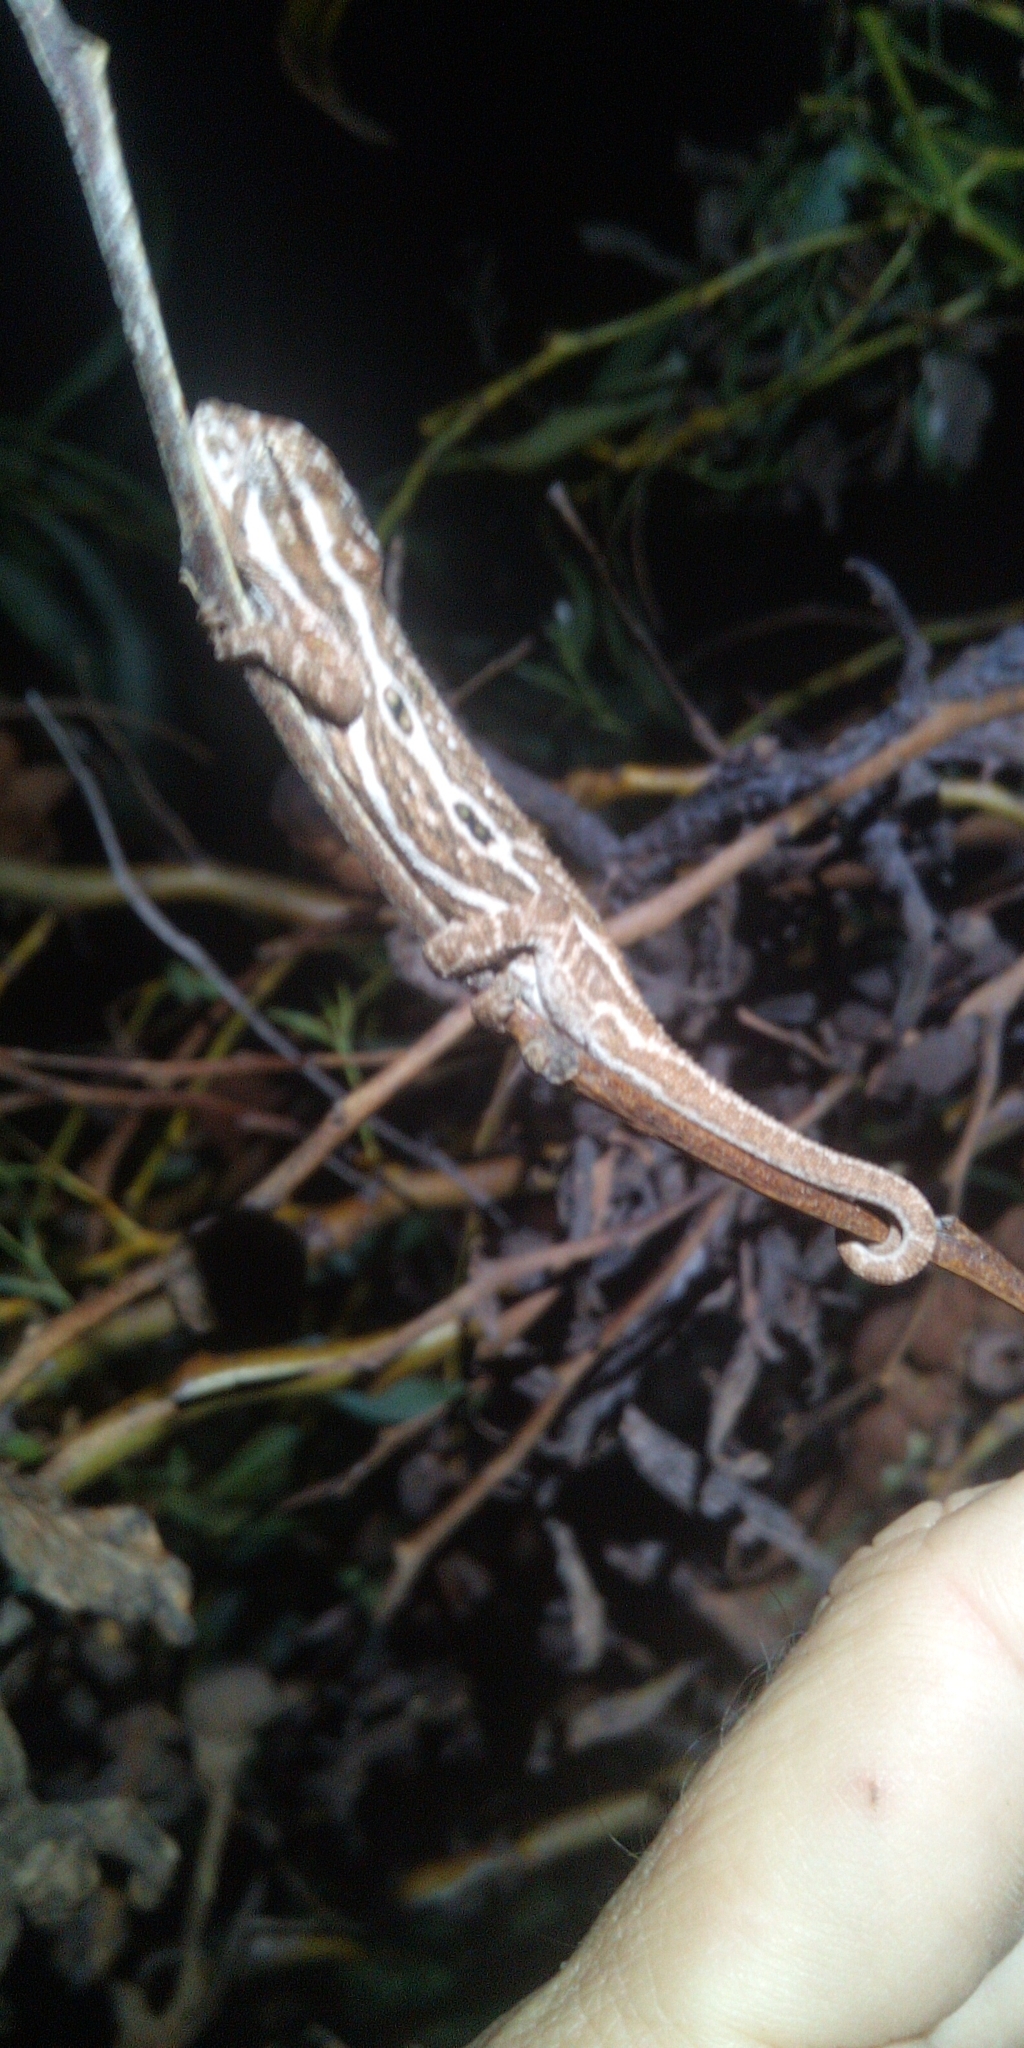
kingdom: Animalia
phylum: Chordata
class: Squamata
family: Chamaeleonidae
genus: Bradypodion
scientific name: Bradypodion pumilum
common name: Cape dwarf chameleon
